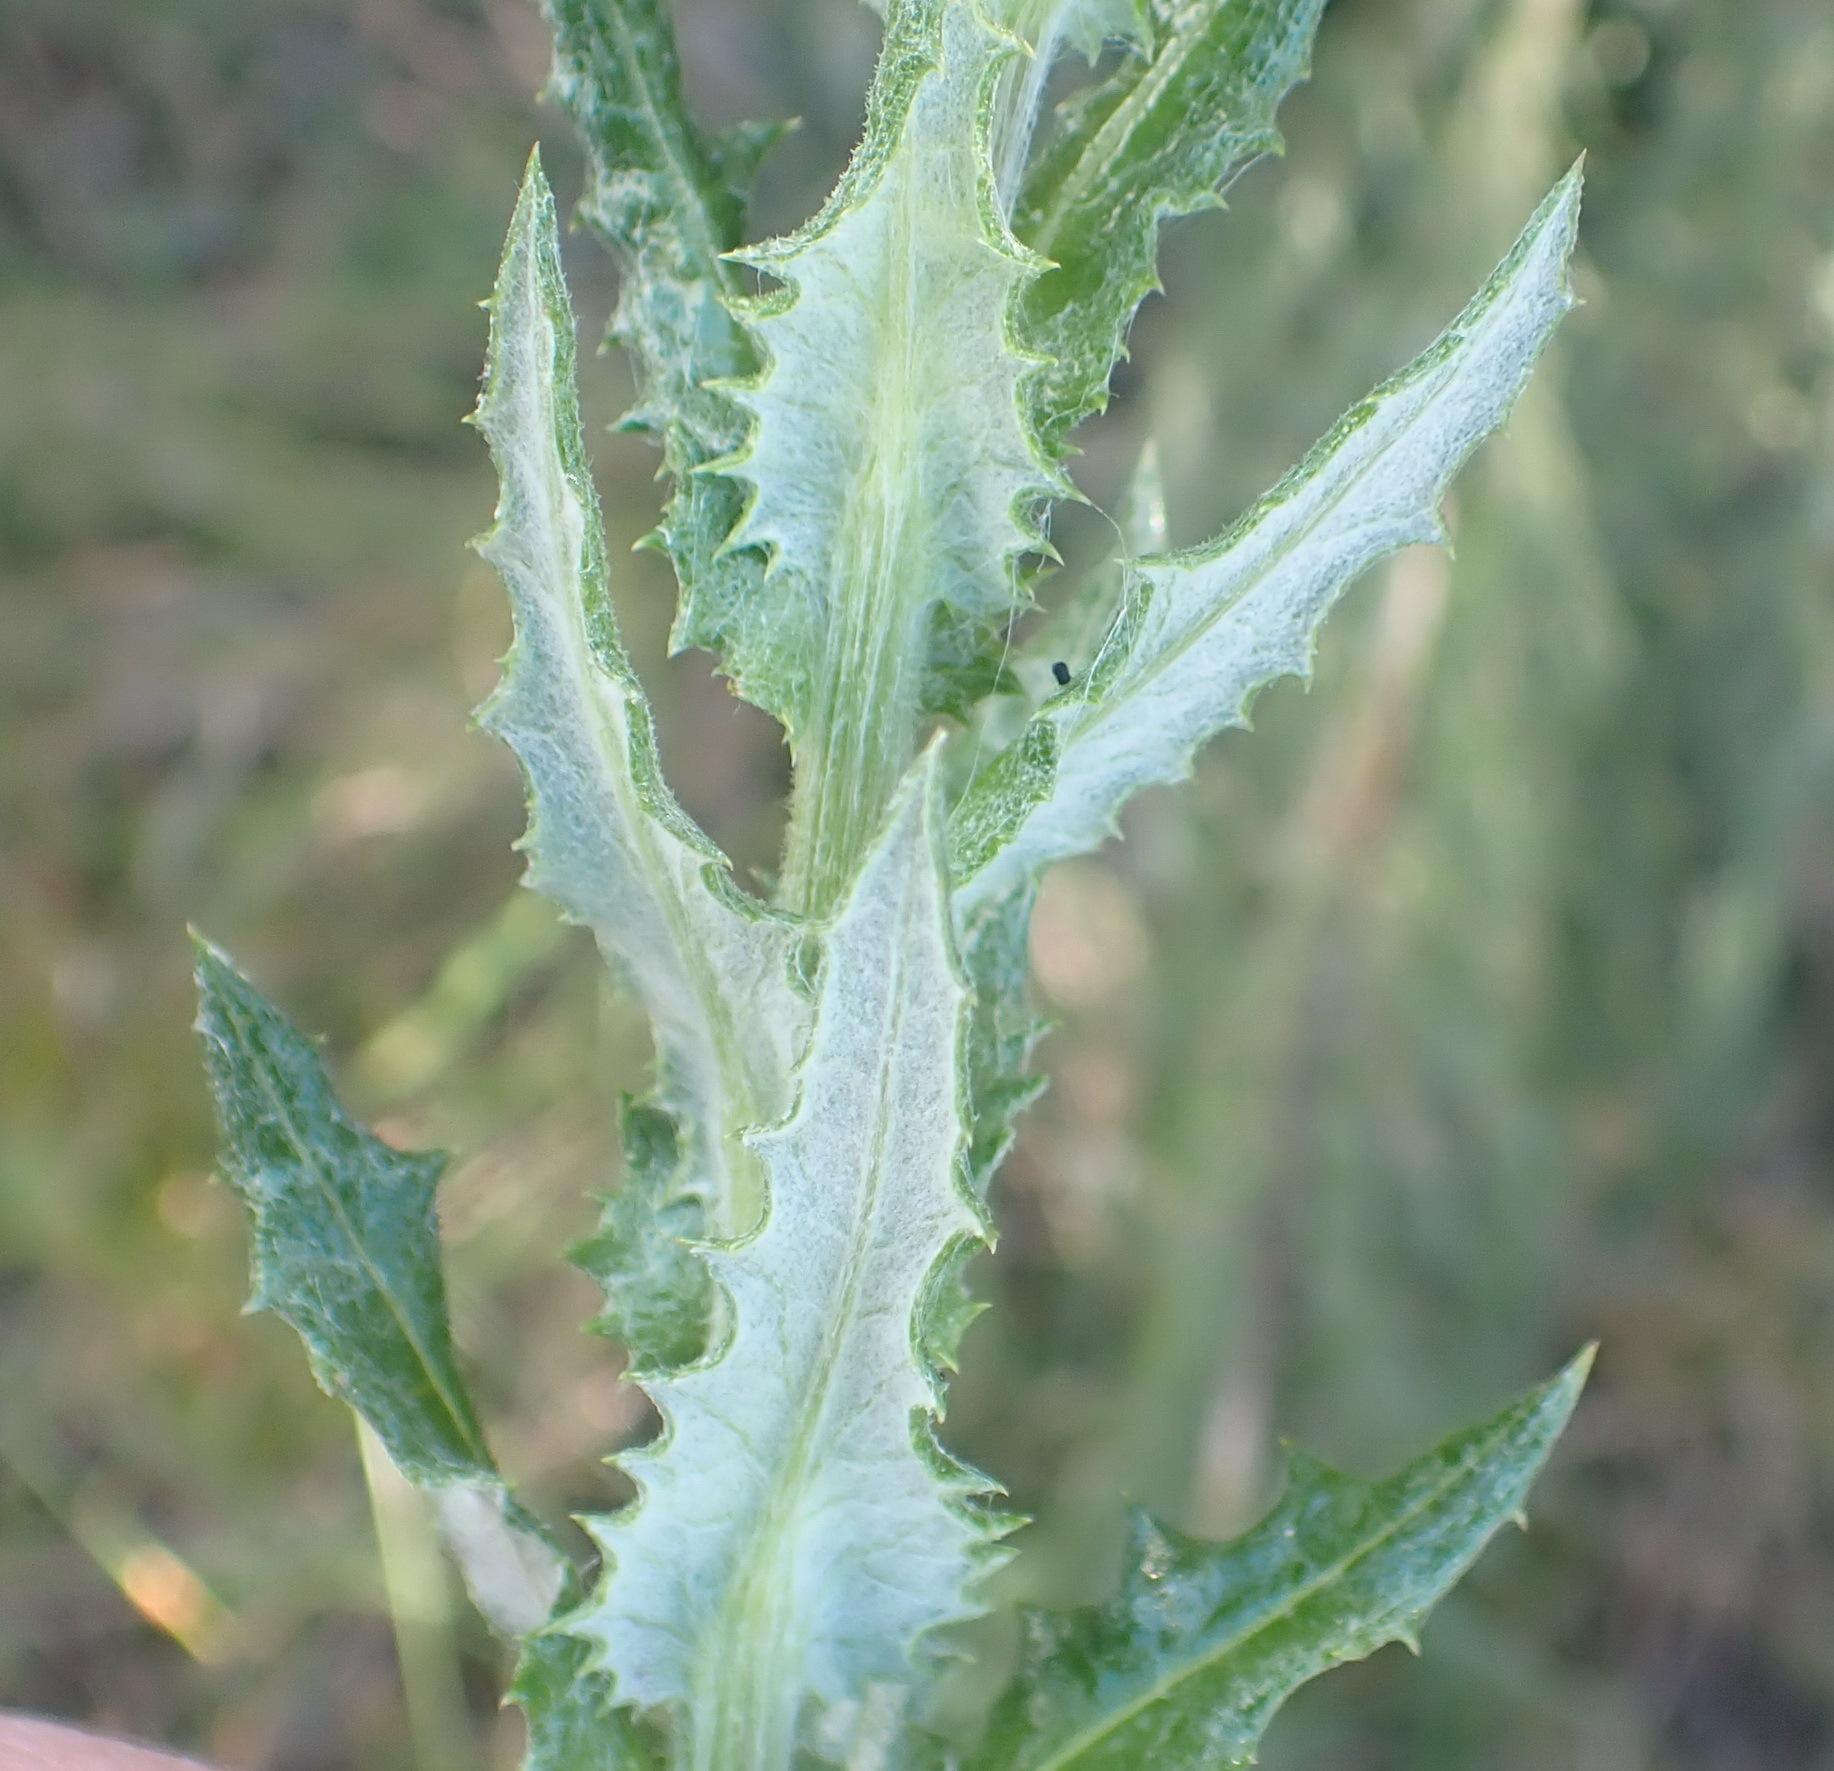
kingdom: Plantae
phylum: Tracheophyta
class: Magnoliopsida
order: Asterales
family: Asteraceae
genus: Senecio
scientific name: Senecio ilicifolius
